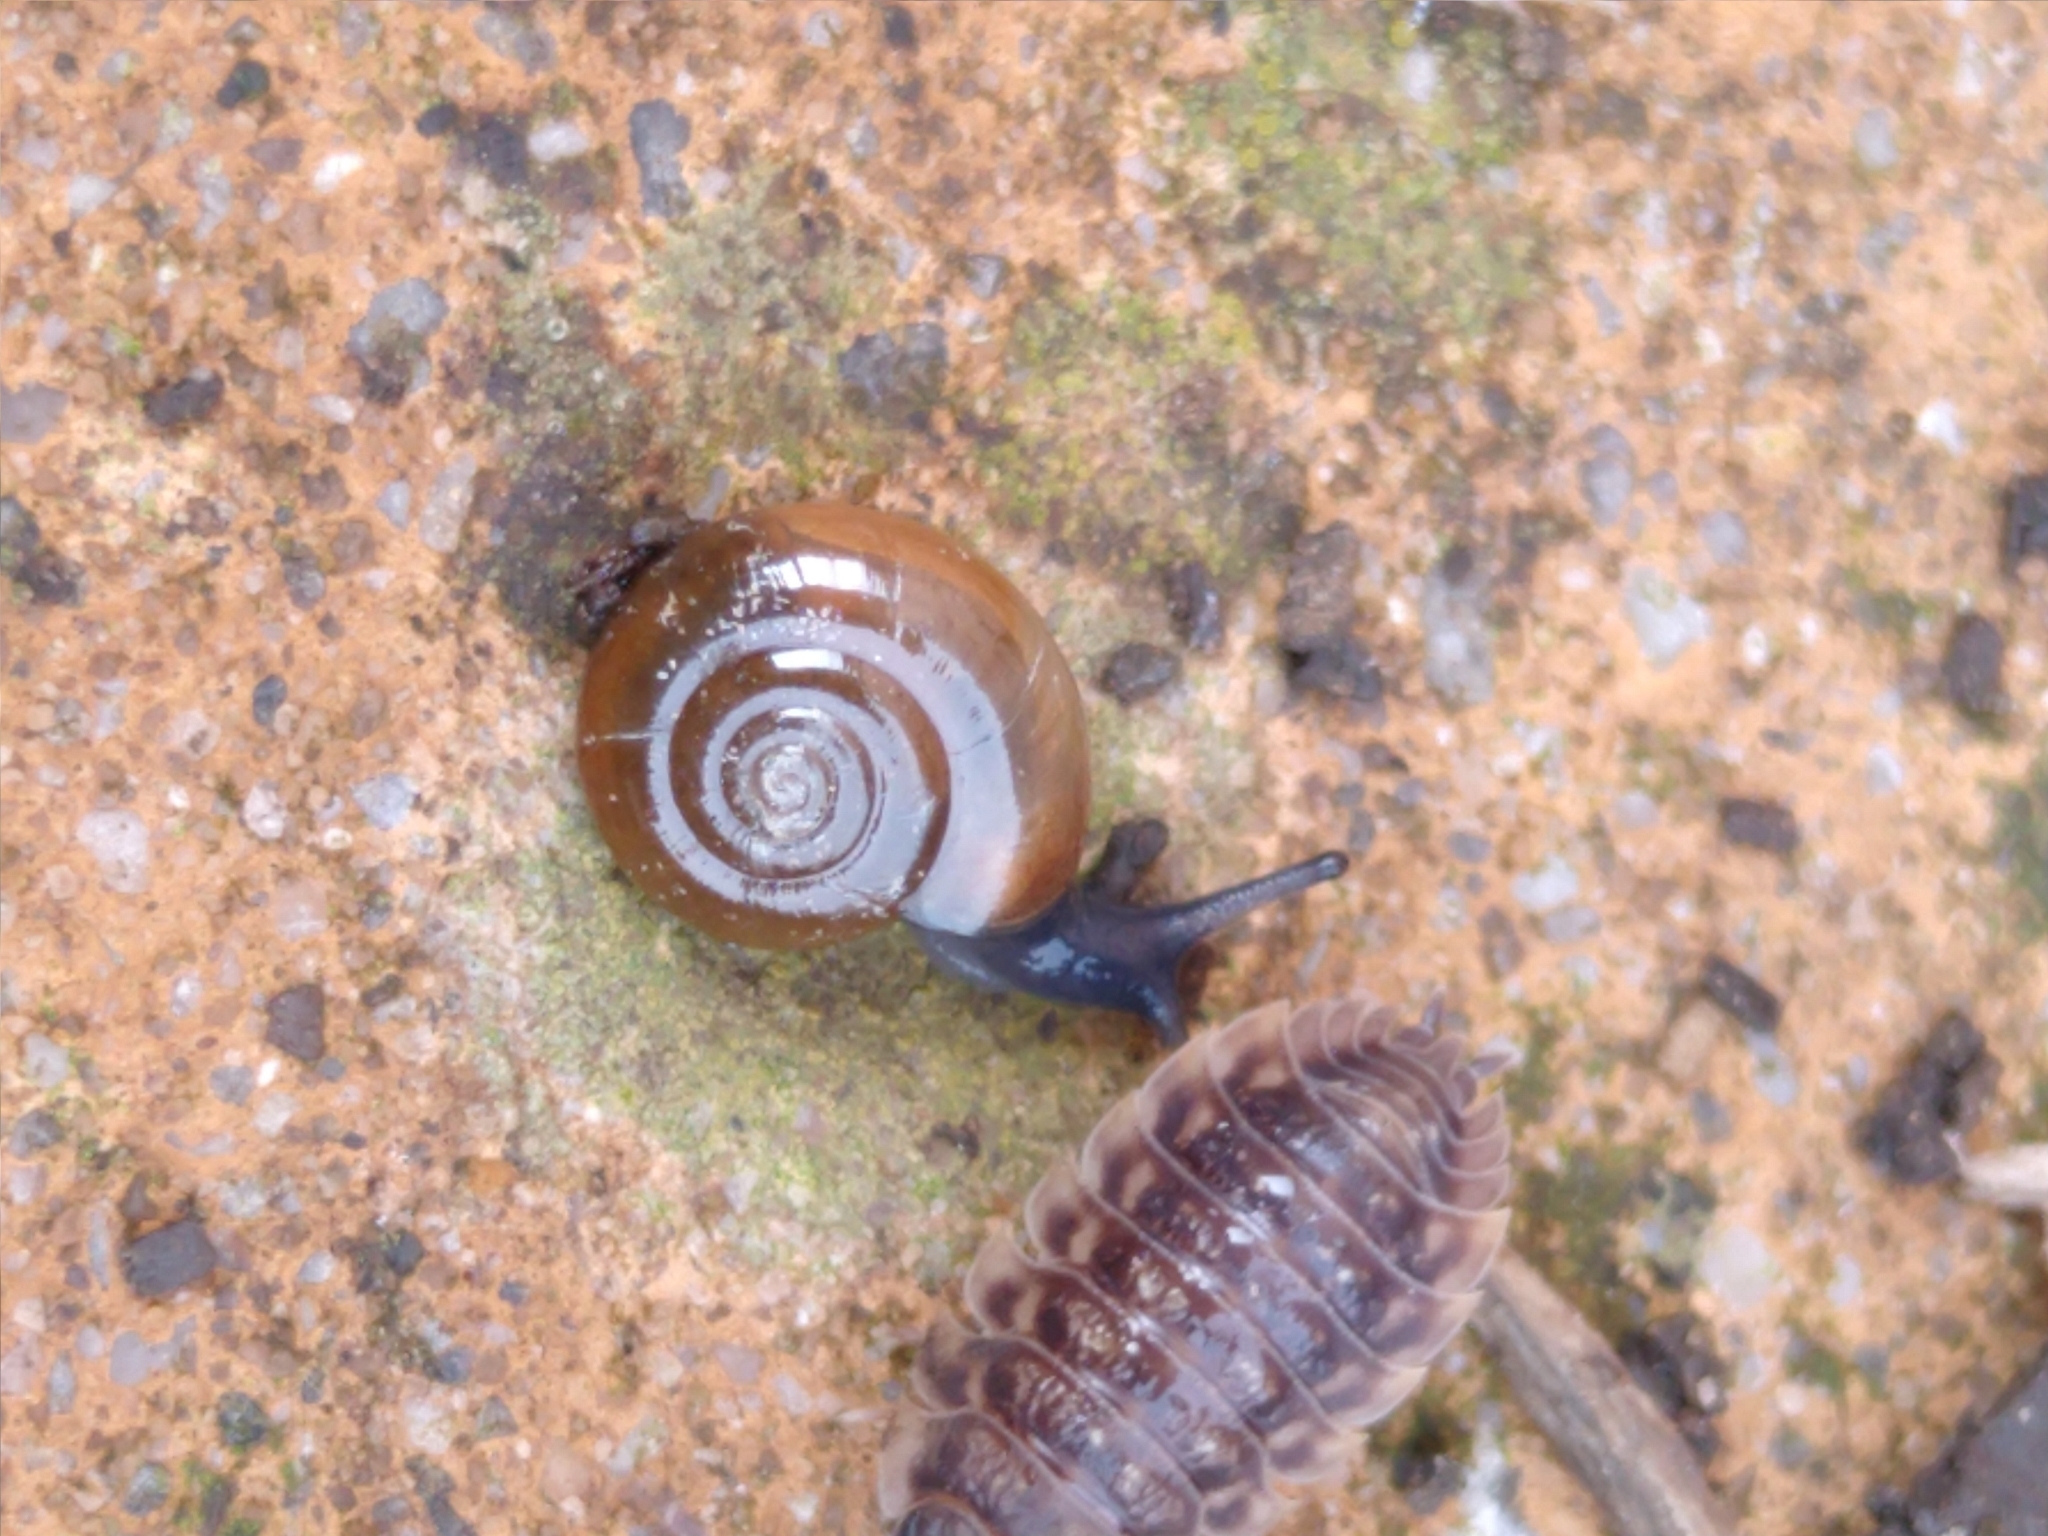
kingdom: Animalia
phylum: Mollusca
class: Gastropoda
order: Stylommatophora
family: Oxychilidae
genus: Oxychilus
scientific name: Oxychilus draparnaudi
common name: Draparnaud's glass snail
